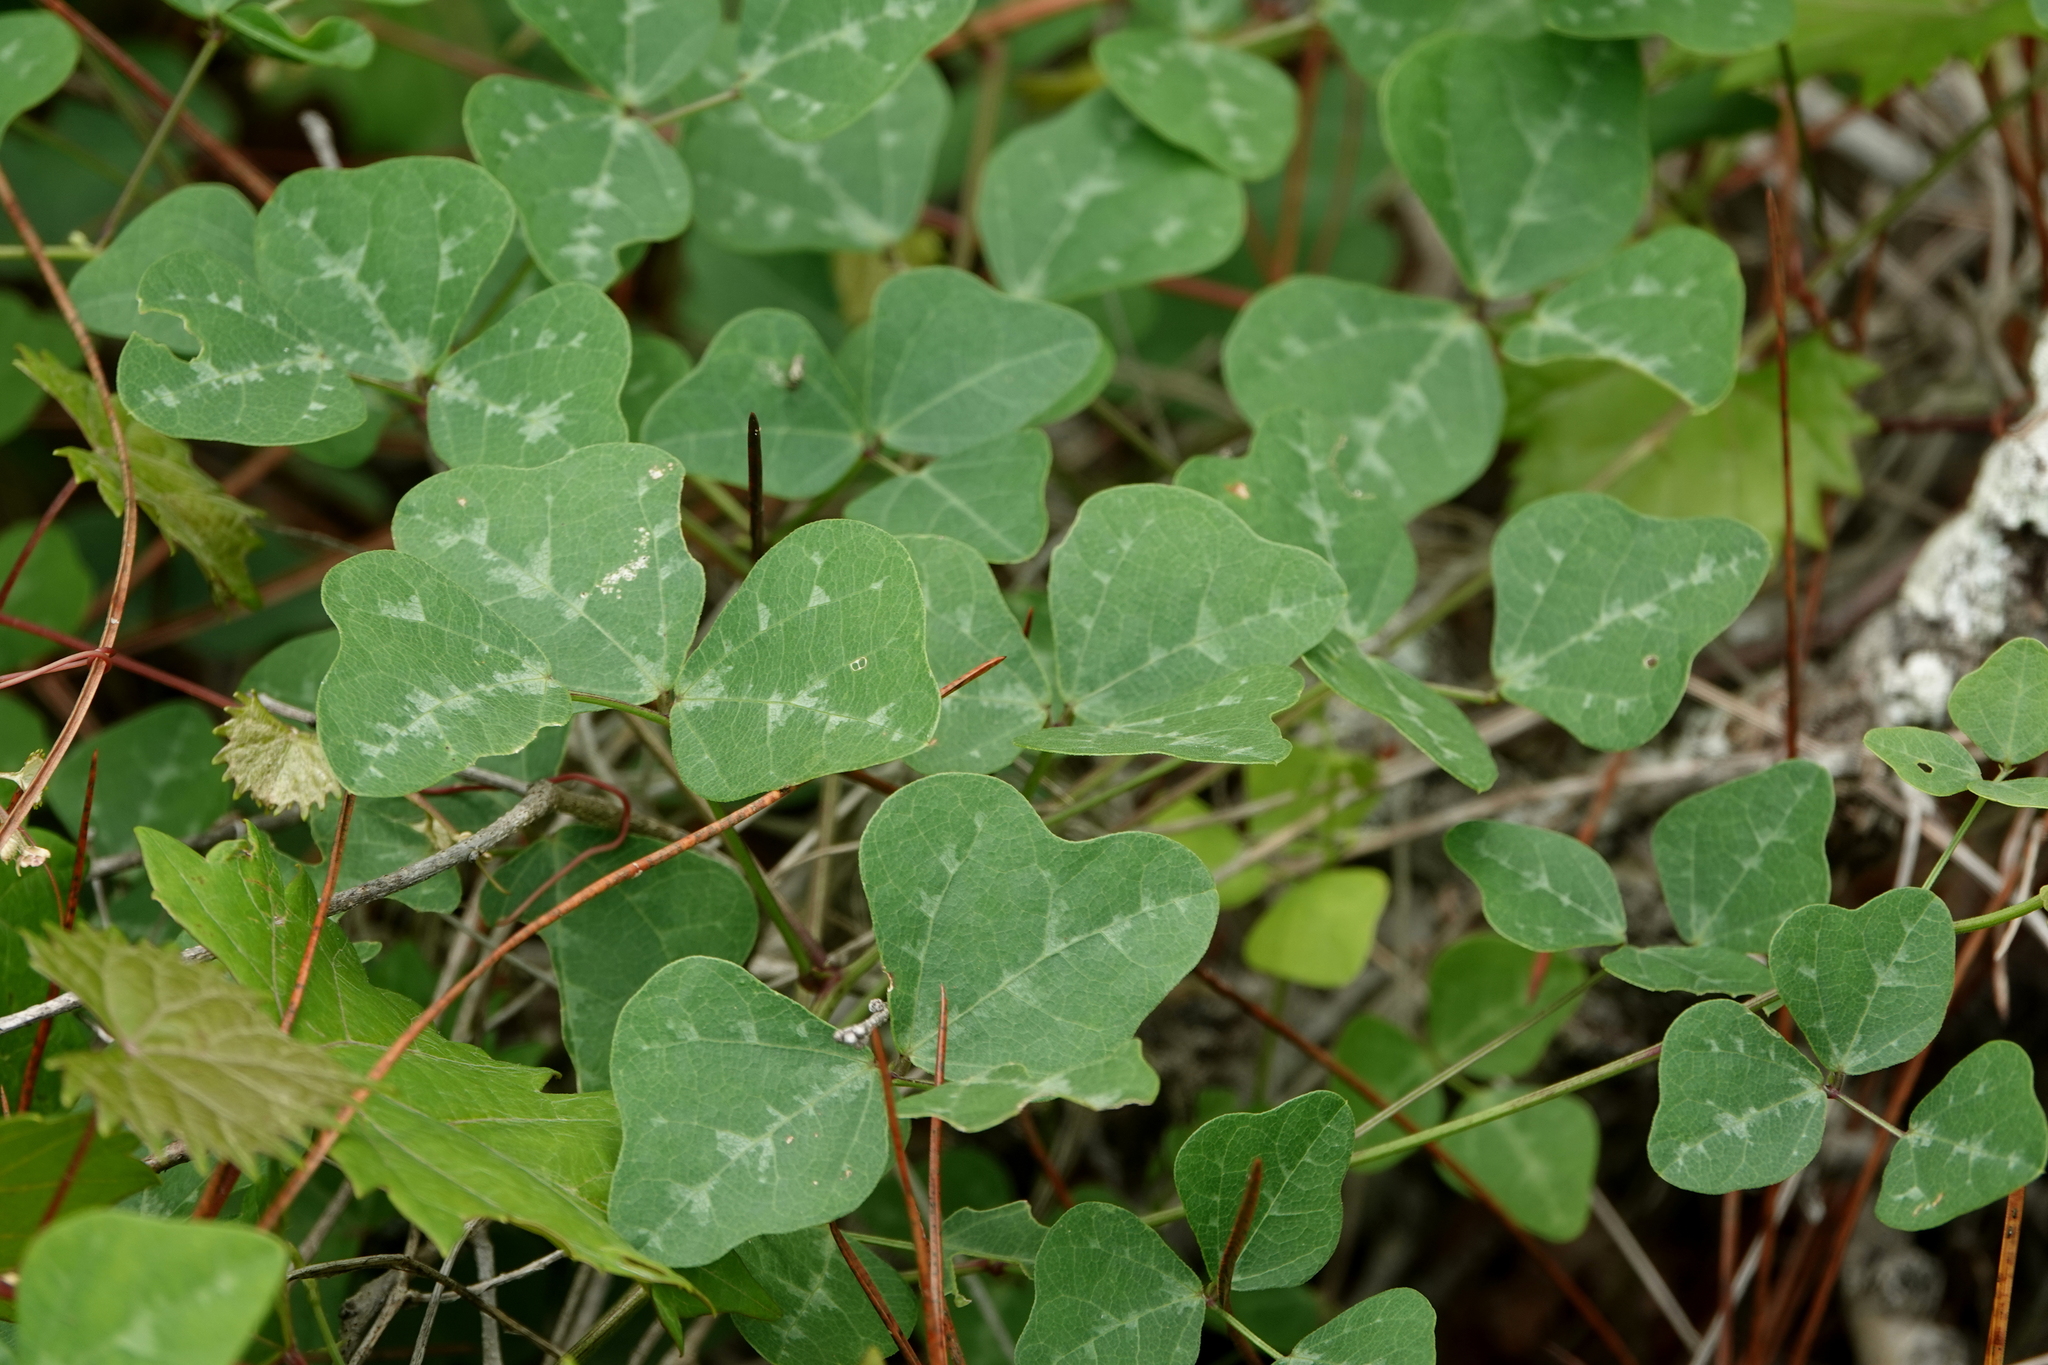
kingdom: Plantae
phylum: Tracheophyta
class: Magnoliopsida
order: Fabales
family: Fabaceae
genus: Phaseolus
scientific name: Phaseolus sinuatus
